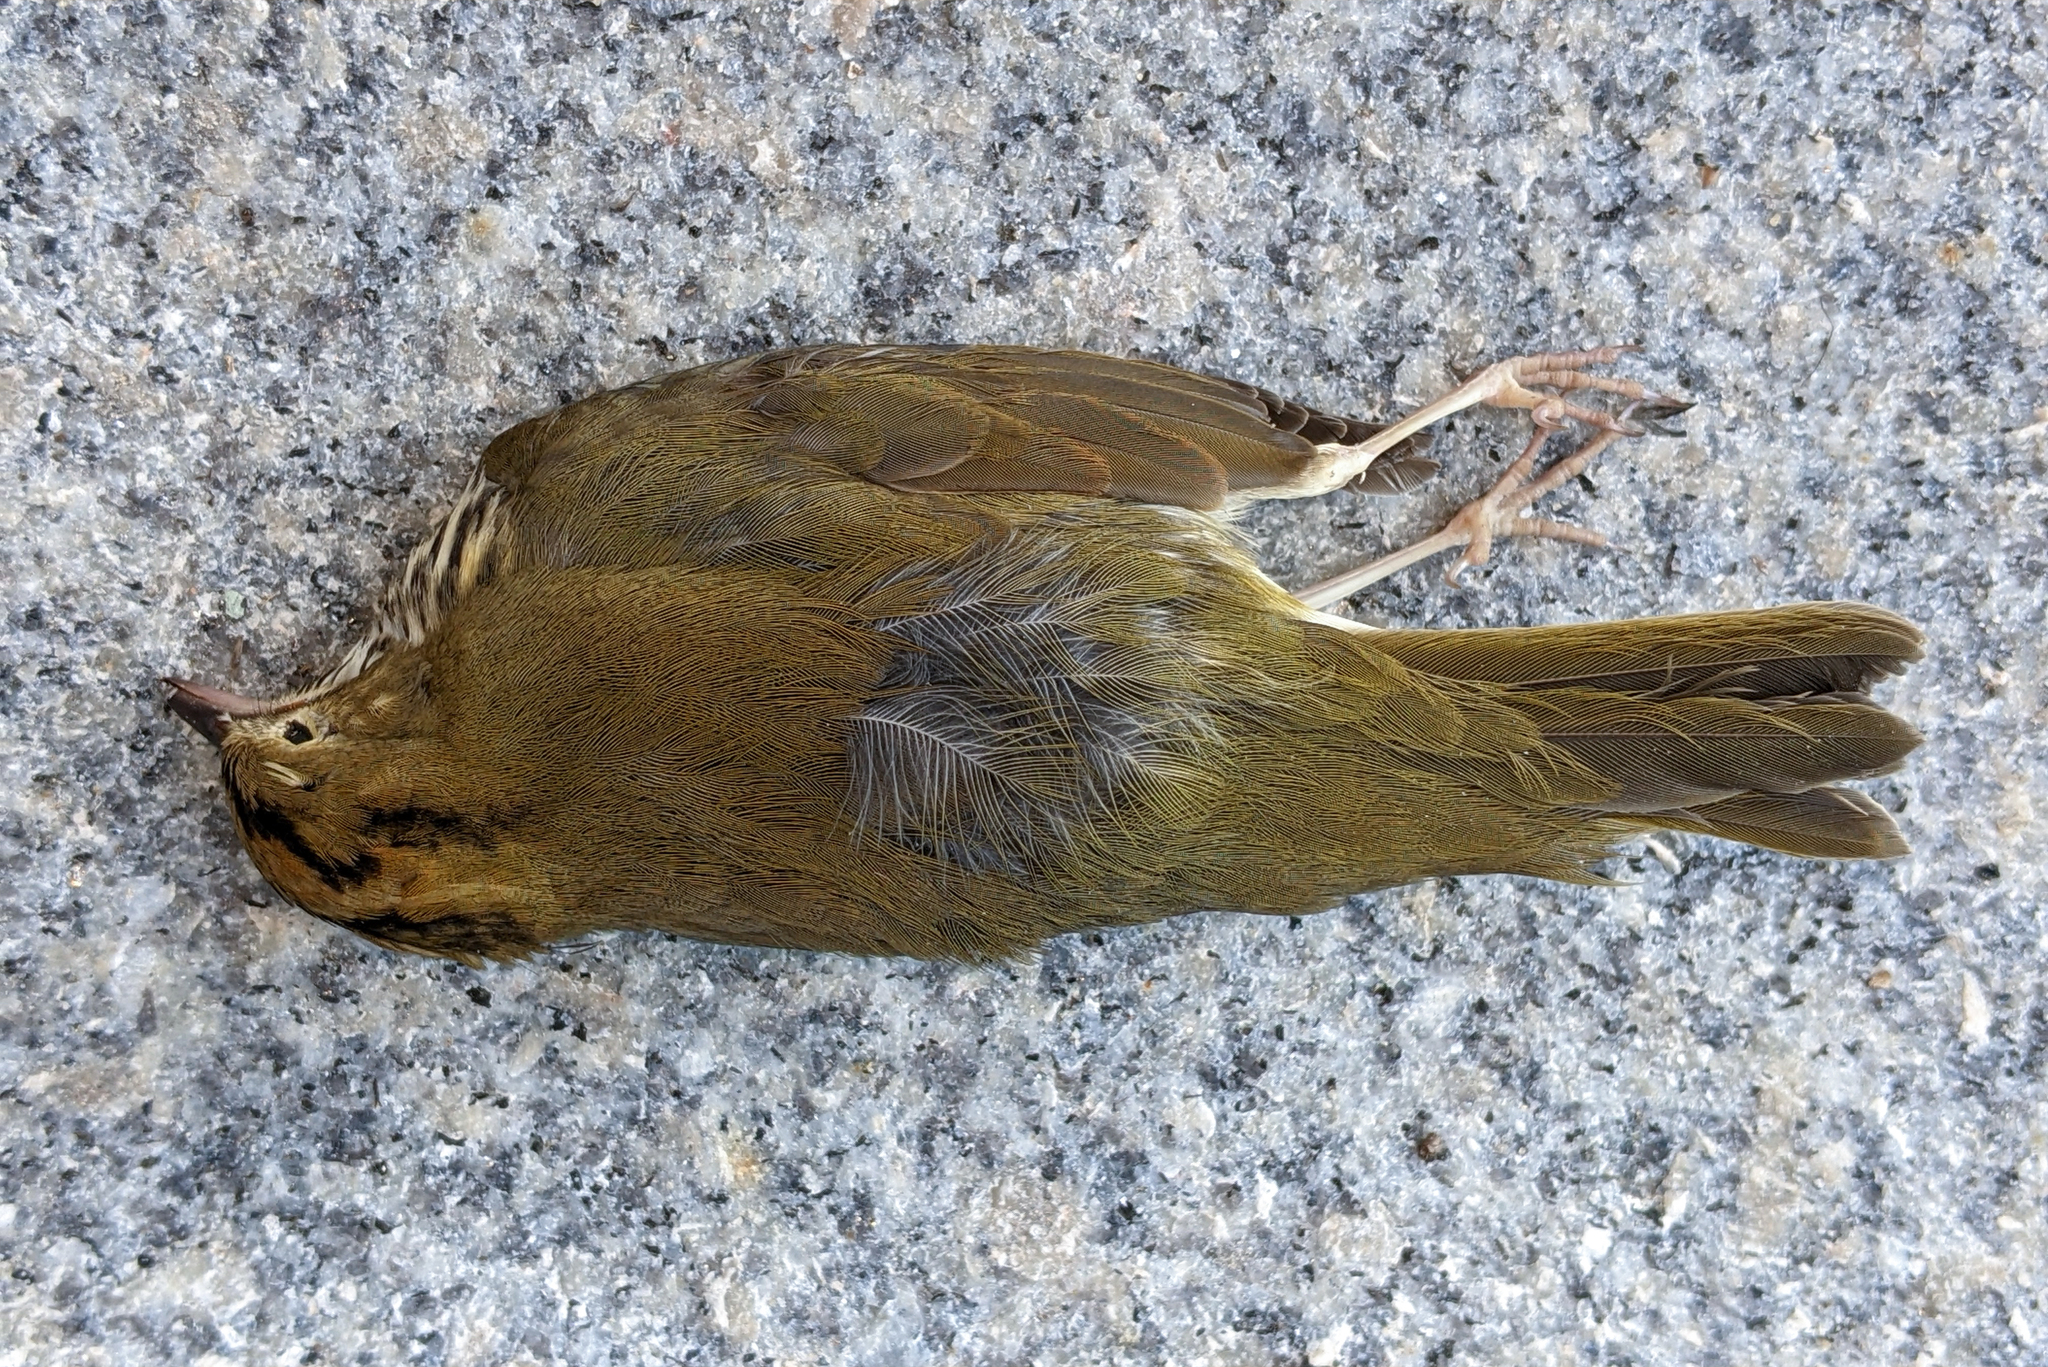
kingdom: Animalia
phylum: Chordata
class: Aves
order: Passeriformes
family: Parulidae
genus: Seiurus
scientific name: Seiurus aurocapilla
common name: Ovenbird
